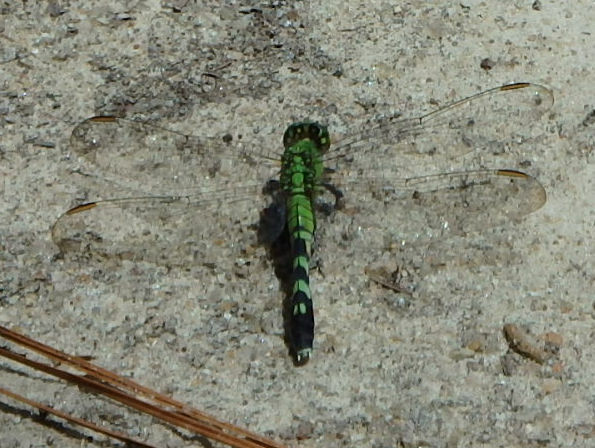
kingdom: Animalia
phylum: Arthropoda
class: Insecta
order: Odonata
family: Libellulidae
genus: Erythemis
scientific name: Erythemis simplicicollis
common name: Eastern pondhawk
